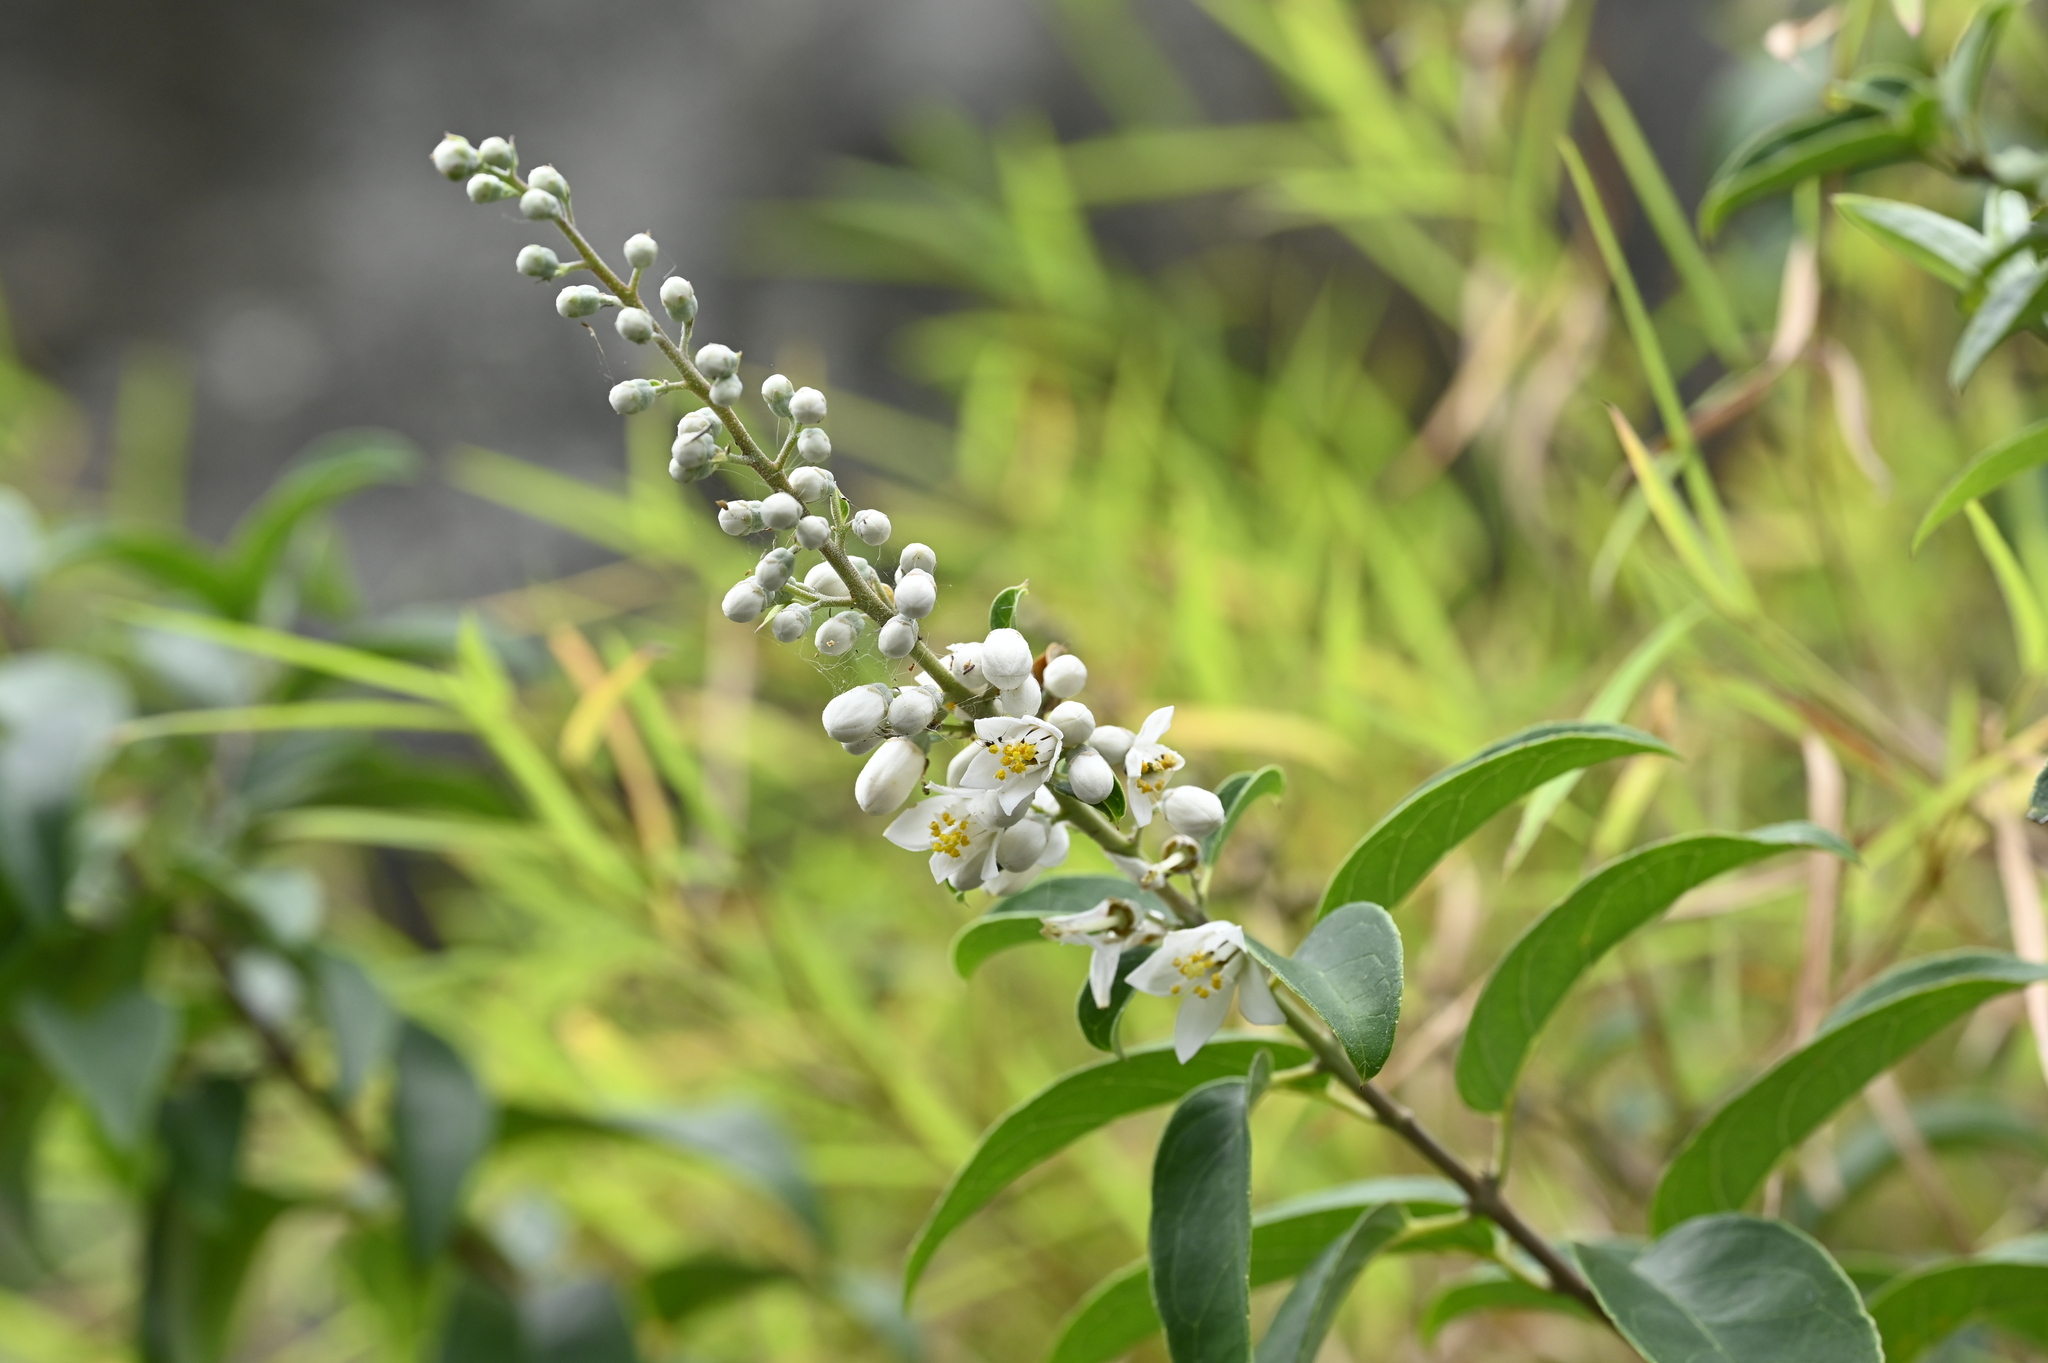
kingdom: Plantae
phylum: Tracheophyta
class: Magnoliopsida
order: Cornales
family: Hydrangeaceae
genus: Deutzia
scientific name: Deutzia pulchra
